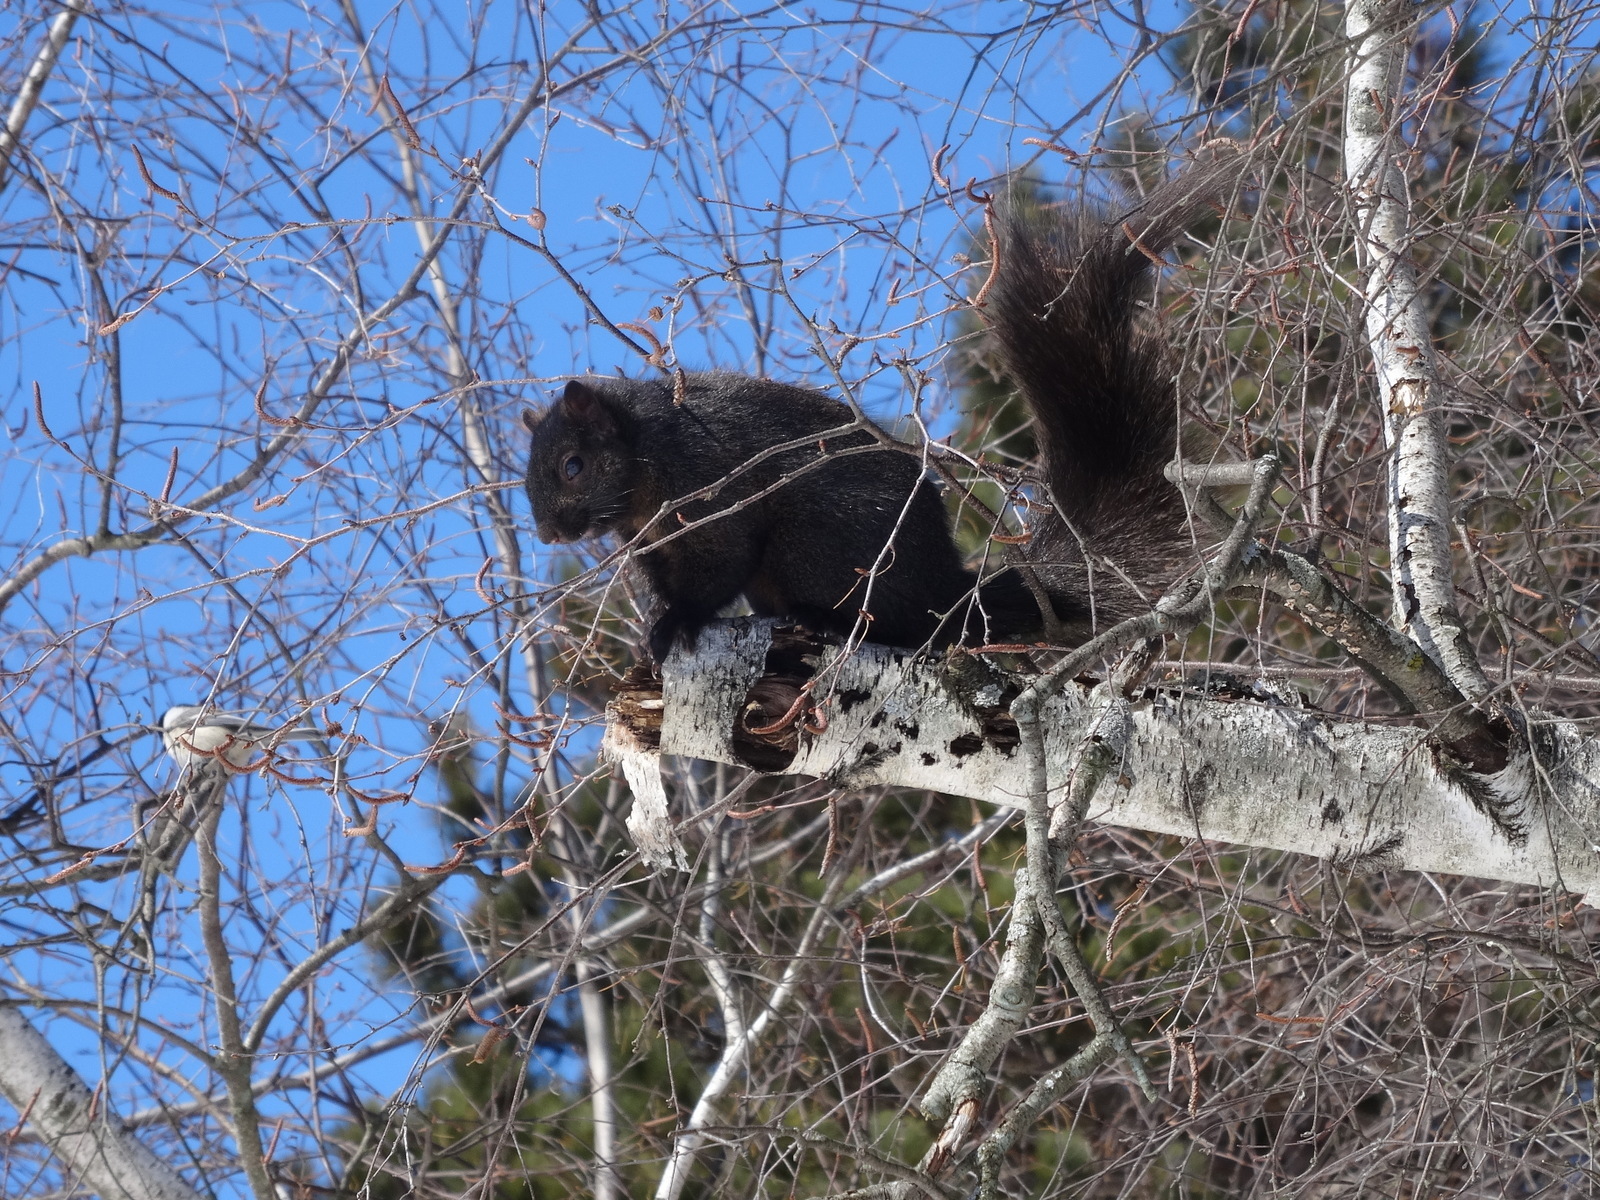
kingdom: Animalia
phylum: Chordata
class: Mammalia
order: Rodentia
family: Sciuridae
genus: Sciurus
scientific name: Sciurus carolinensis
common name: Eastern gray squirrel
